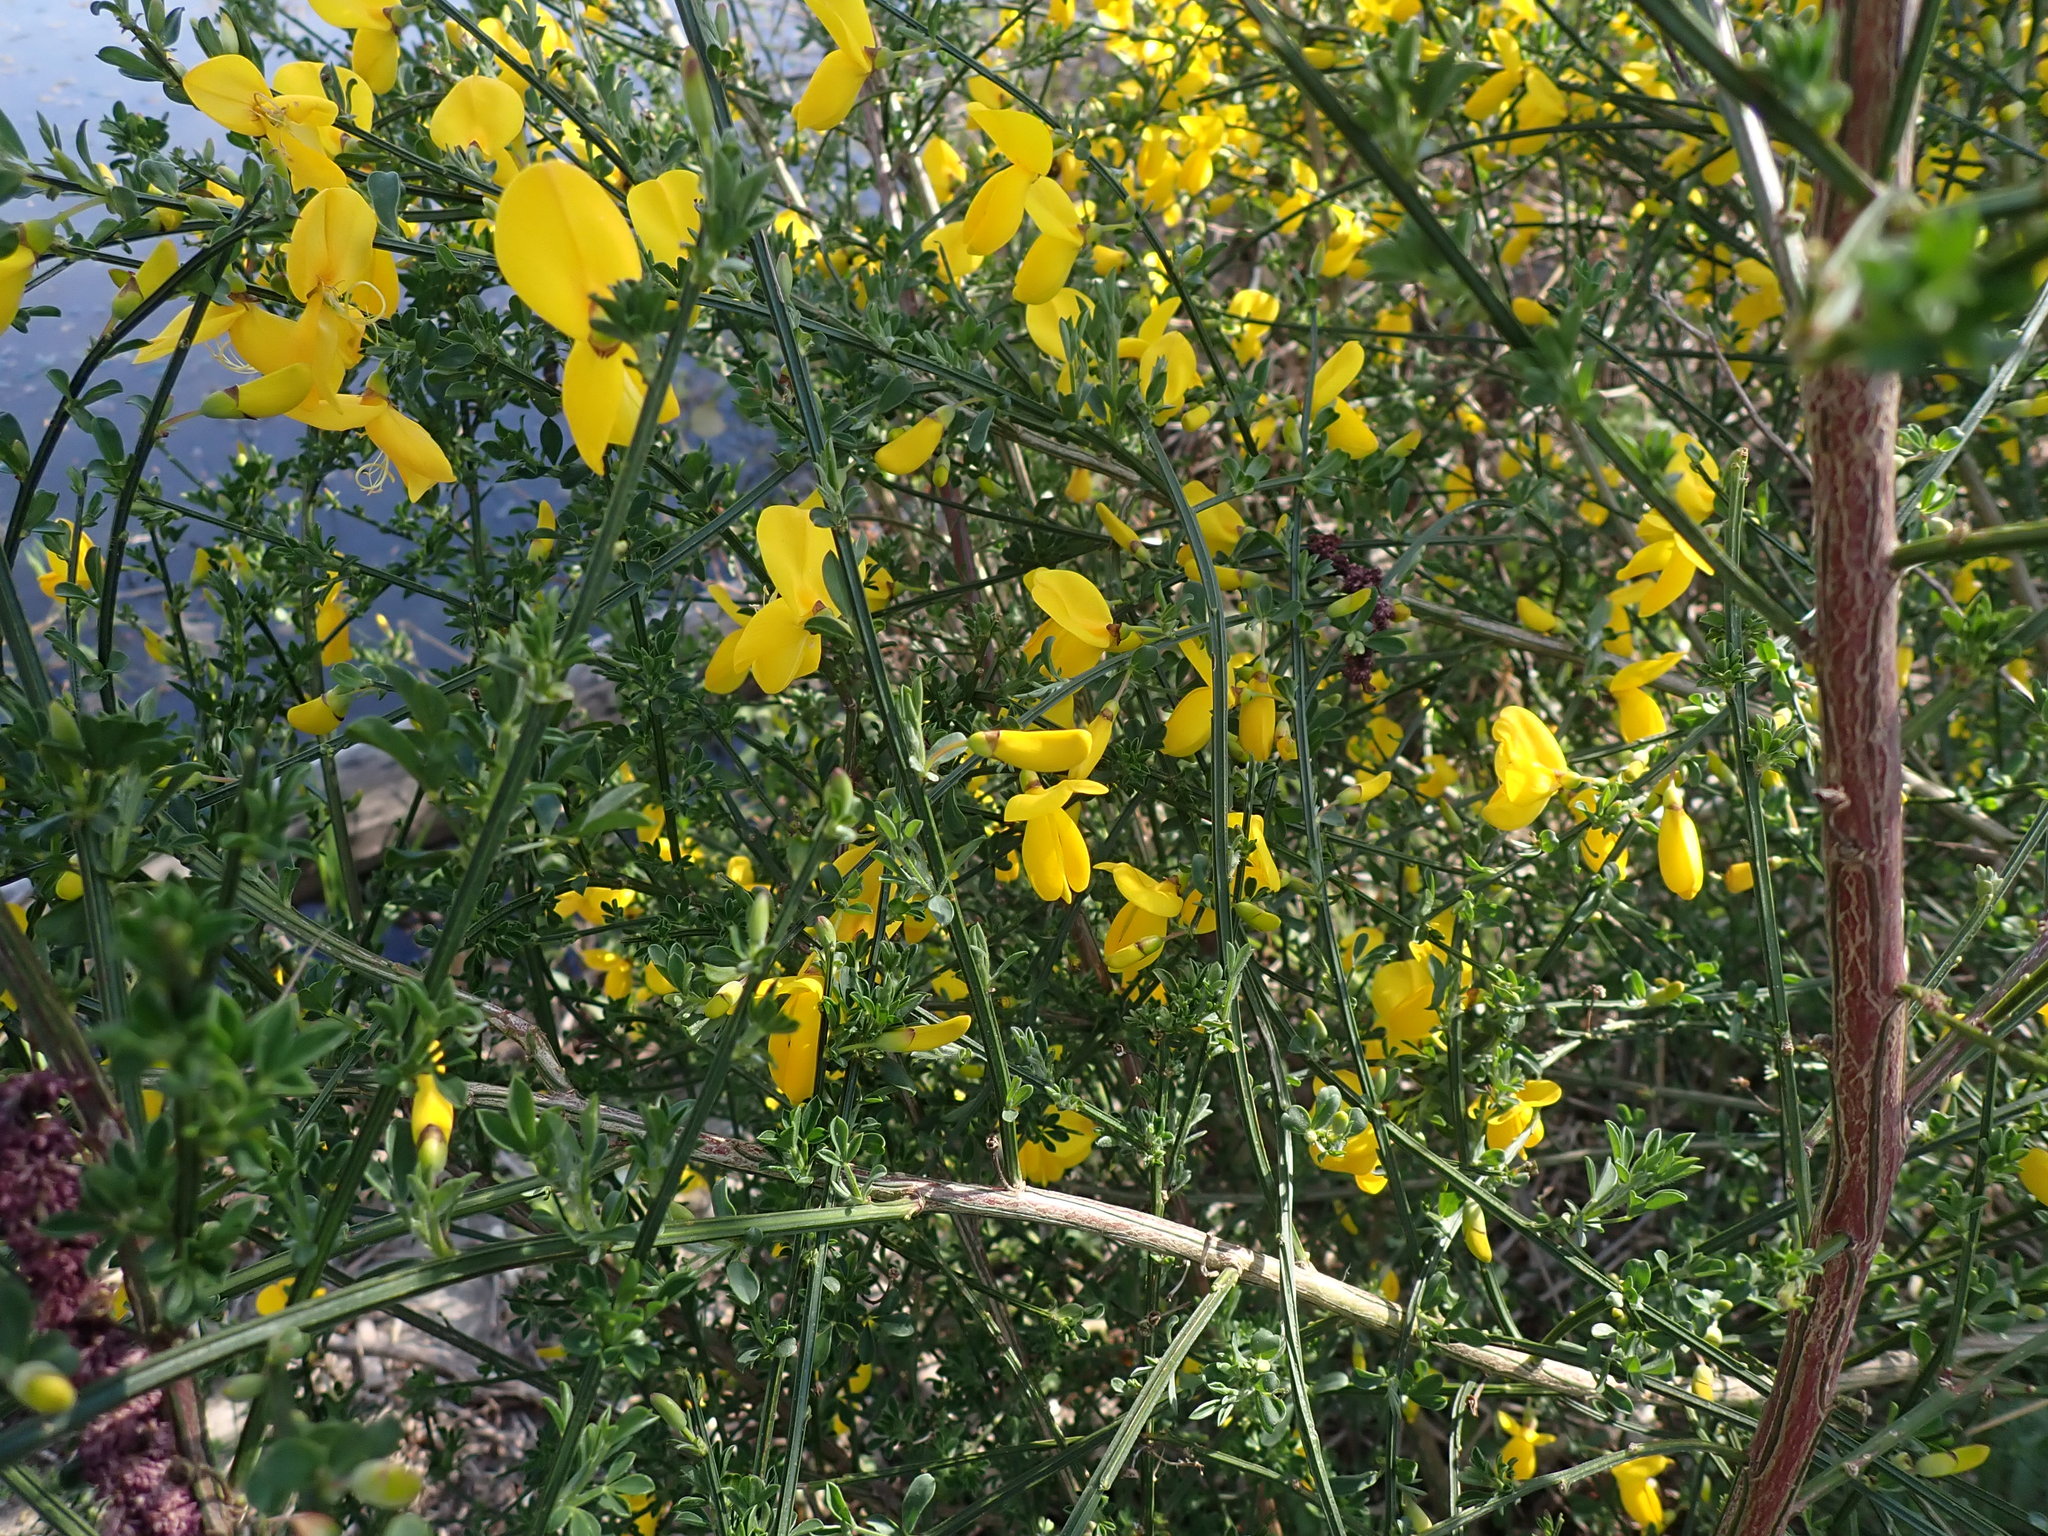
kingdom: Plantae
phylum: Tracheophyta
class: Magnoliopsida
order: Fabales
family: Fabaceae
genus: Cytisus
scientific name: Cytisus scoparius
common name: Scotch broom
